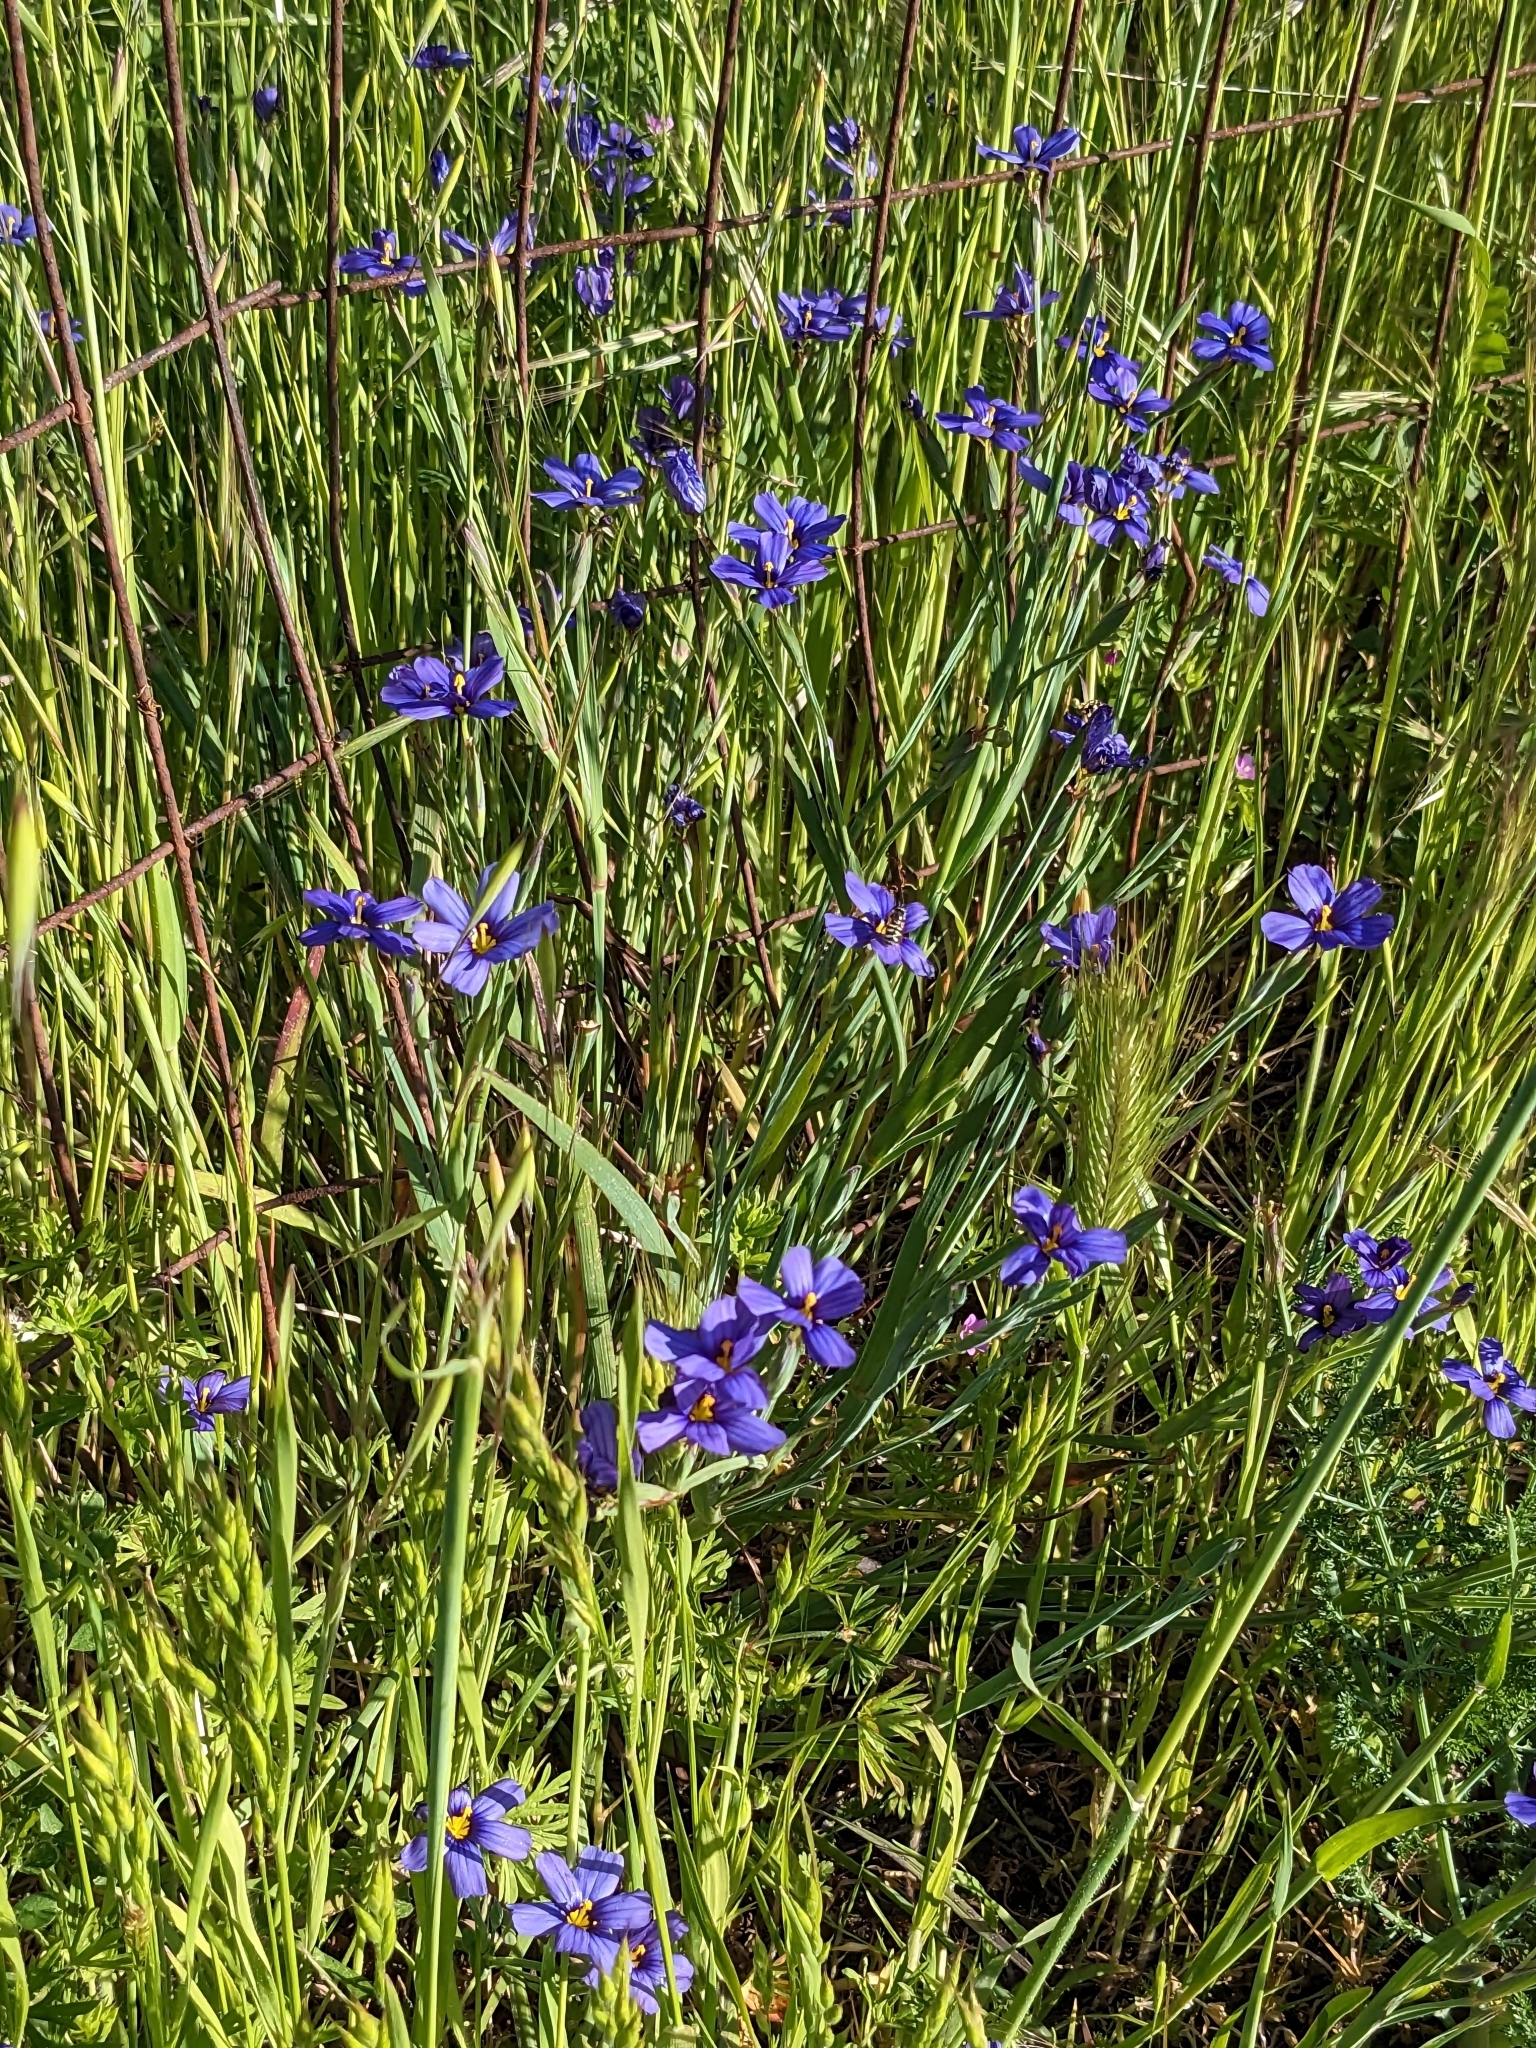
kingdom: Plantae
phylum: Tracheophyta
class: Liliopsida
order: Asparagales
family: Iridaceae
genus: Sisyrinchium
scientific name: Sisyrinchium bellum
